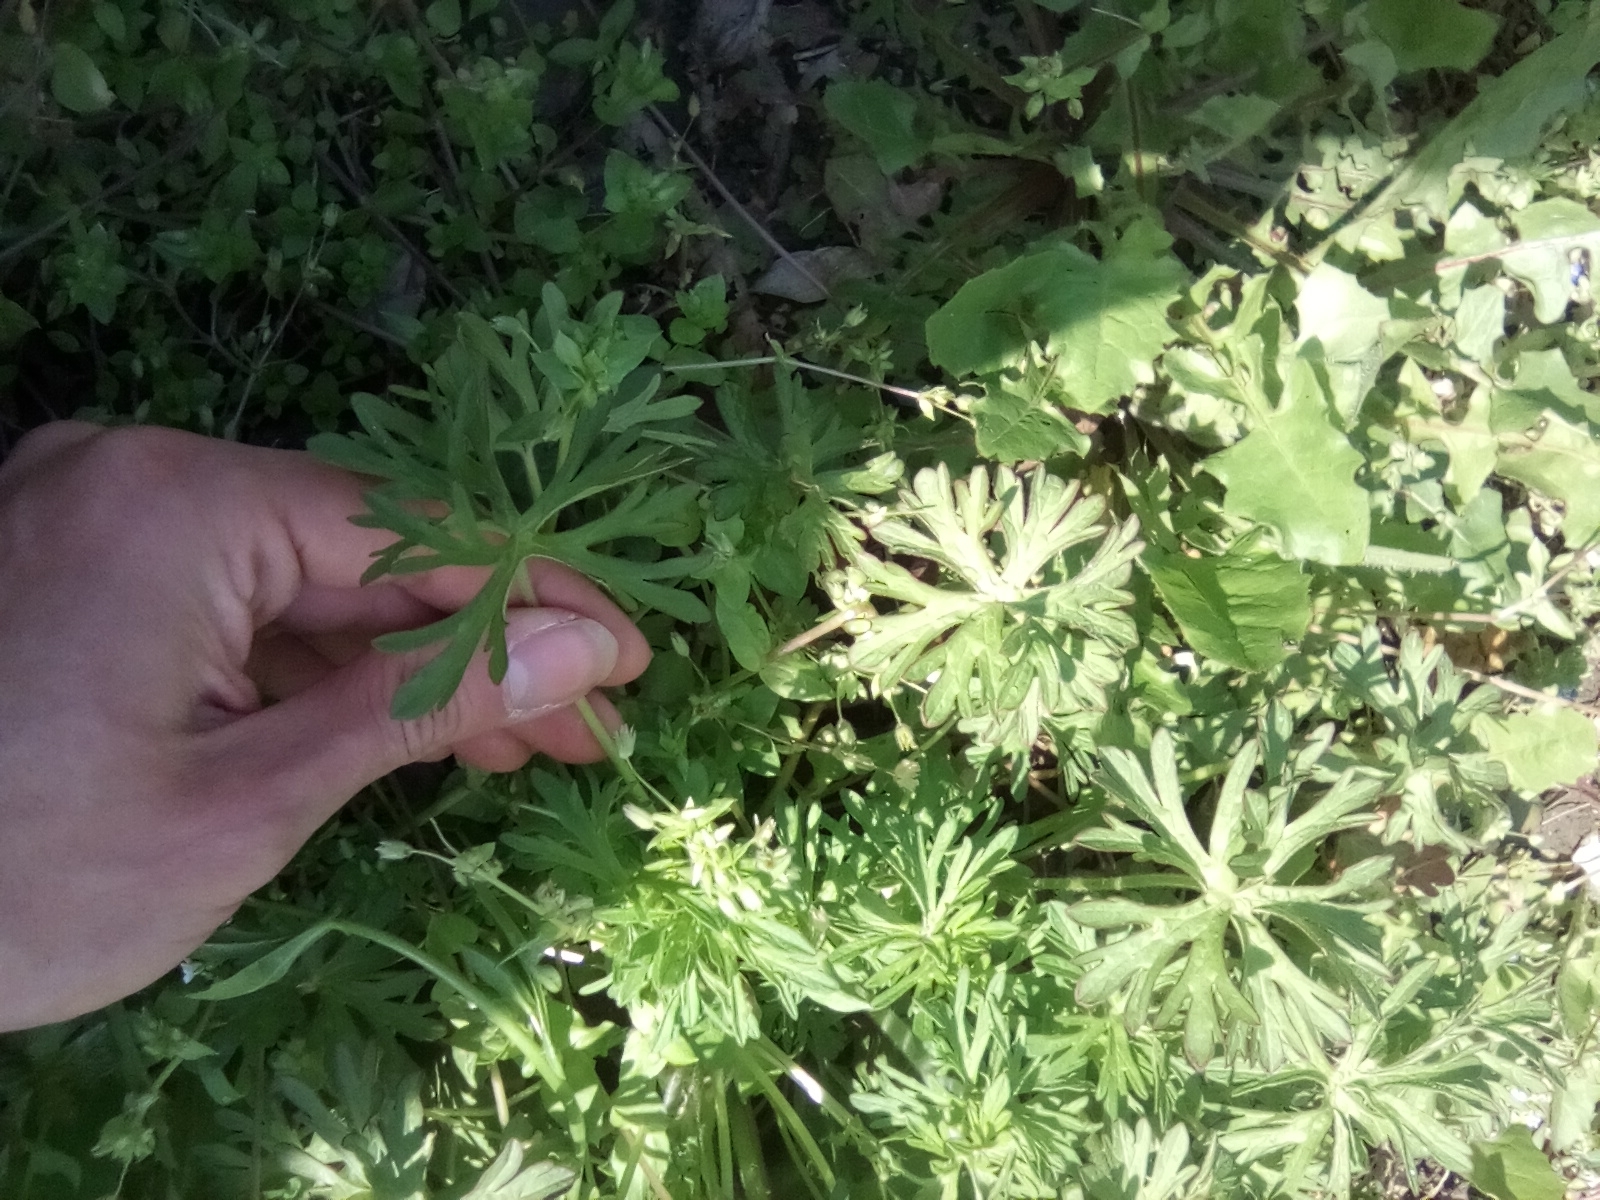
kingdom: Plantae
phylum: Tracheophyta
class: Magnoliopsida
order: Geraniales
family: Geraniaceae
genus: Geranium
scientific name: Geranium dissectum
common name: Cut-leaved crane's-bill
